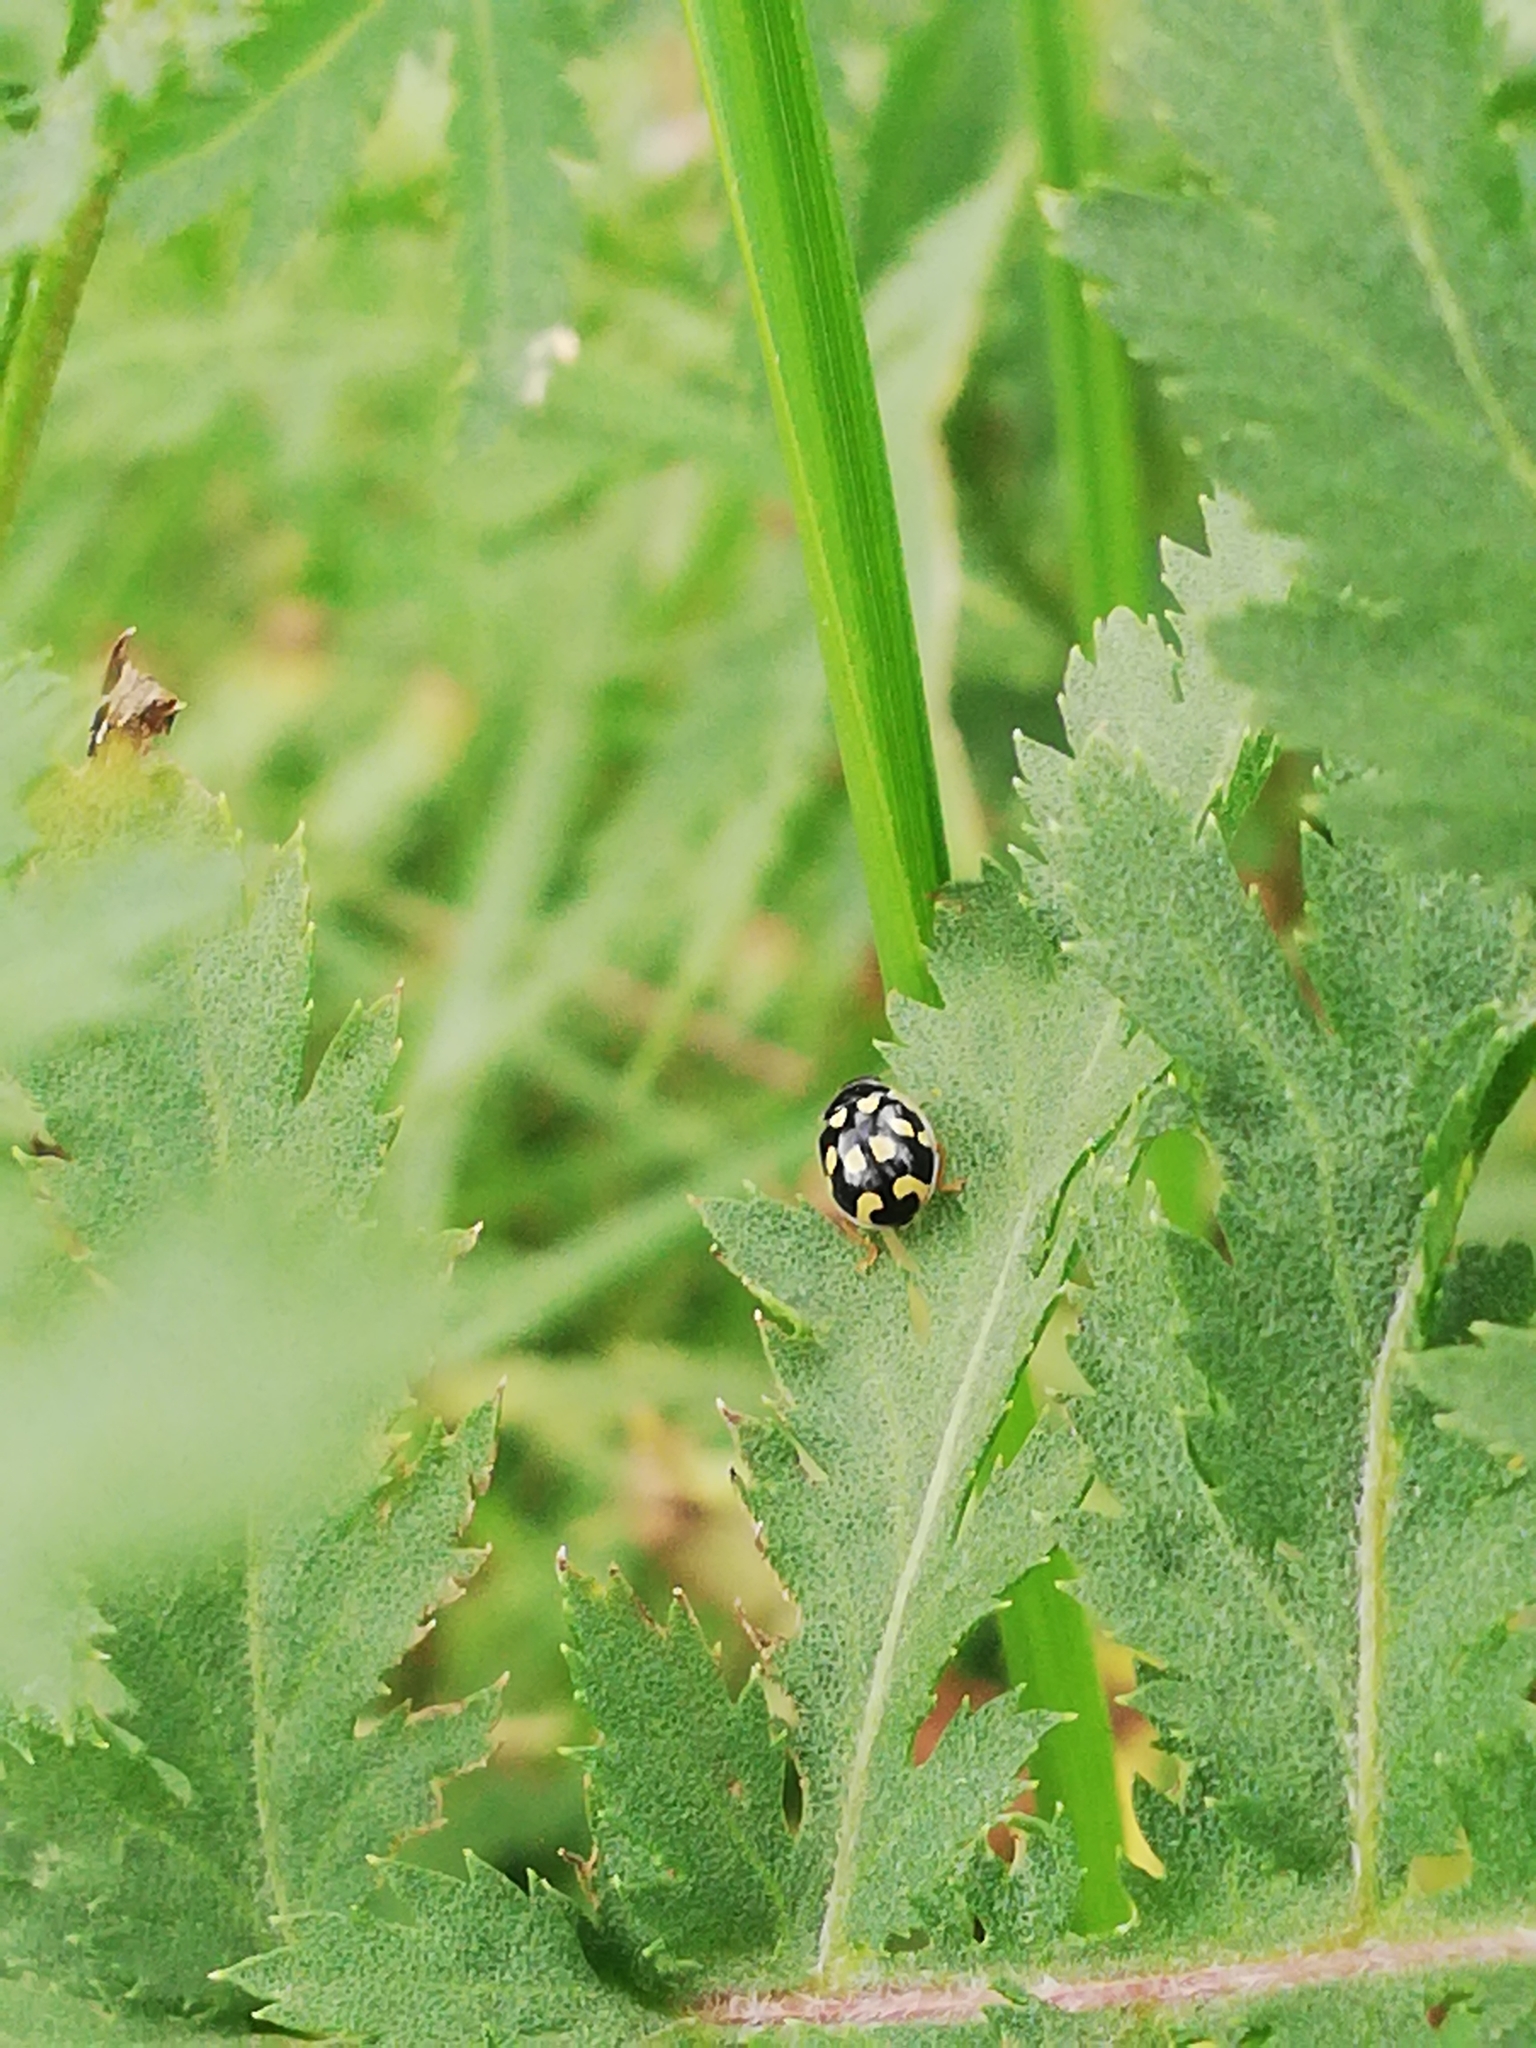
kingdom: Animalia
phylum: Arthropoda
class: Insecta
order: Coleoptera
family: Coccinellidae
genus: Propylaea
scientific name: Propylaea quatuordecimpunctata
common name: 14-spotted ladybird beetle
